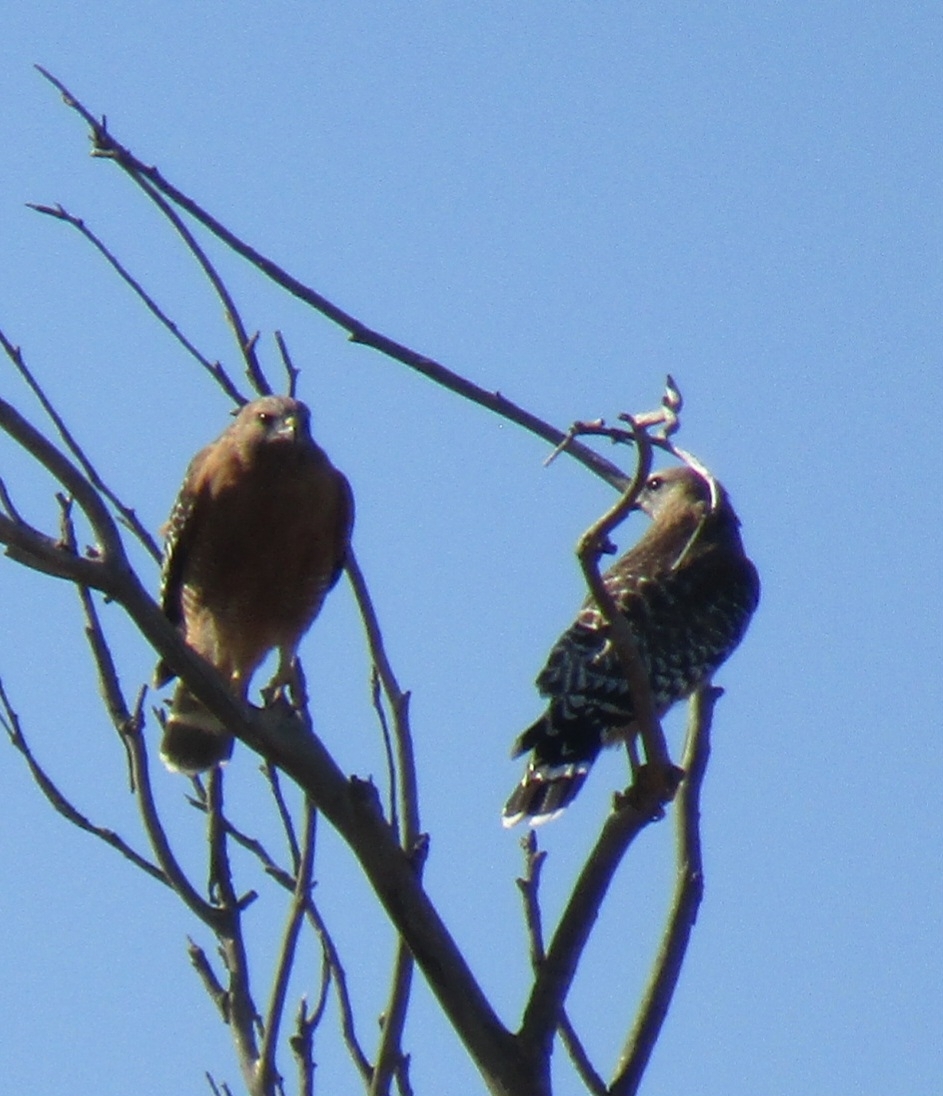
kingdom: Animalia
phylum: Chordata
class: Aves
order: Accipitriformes
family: Accipitridae
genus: Buteo
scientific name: Buteo lineatus
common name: Red-shouldered hawk
